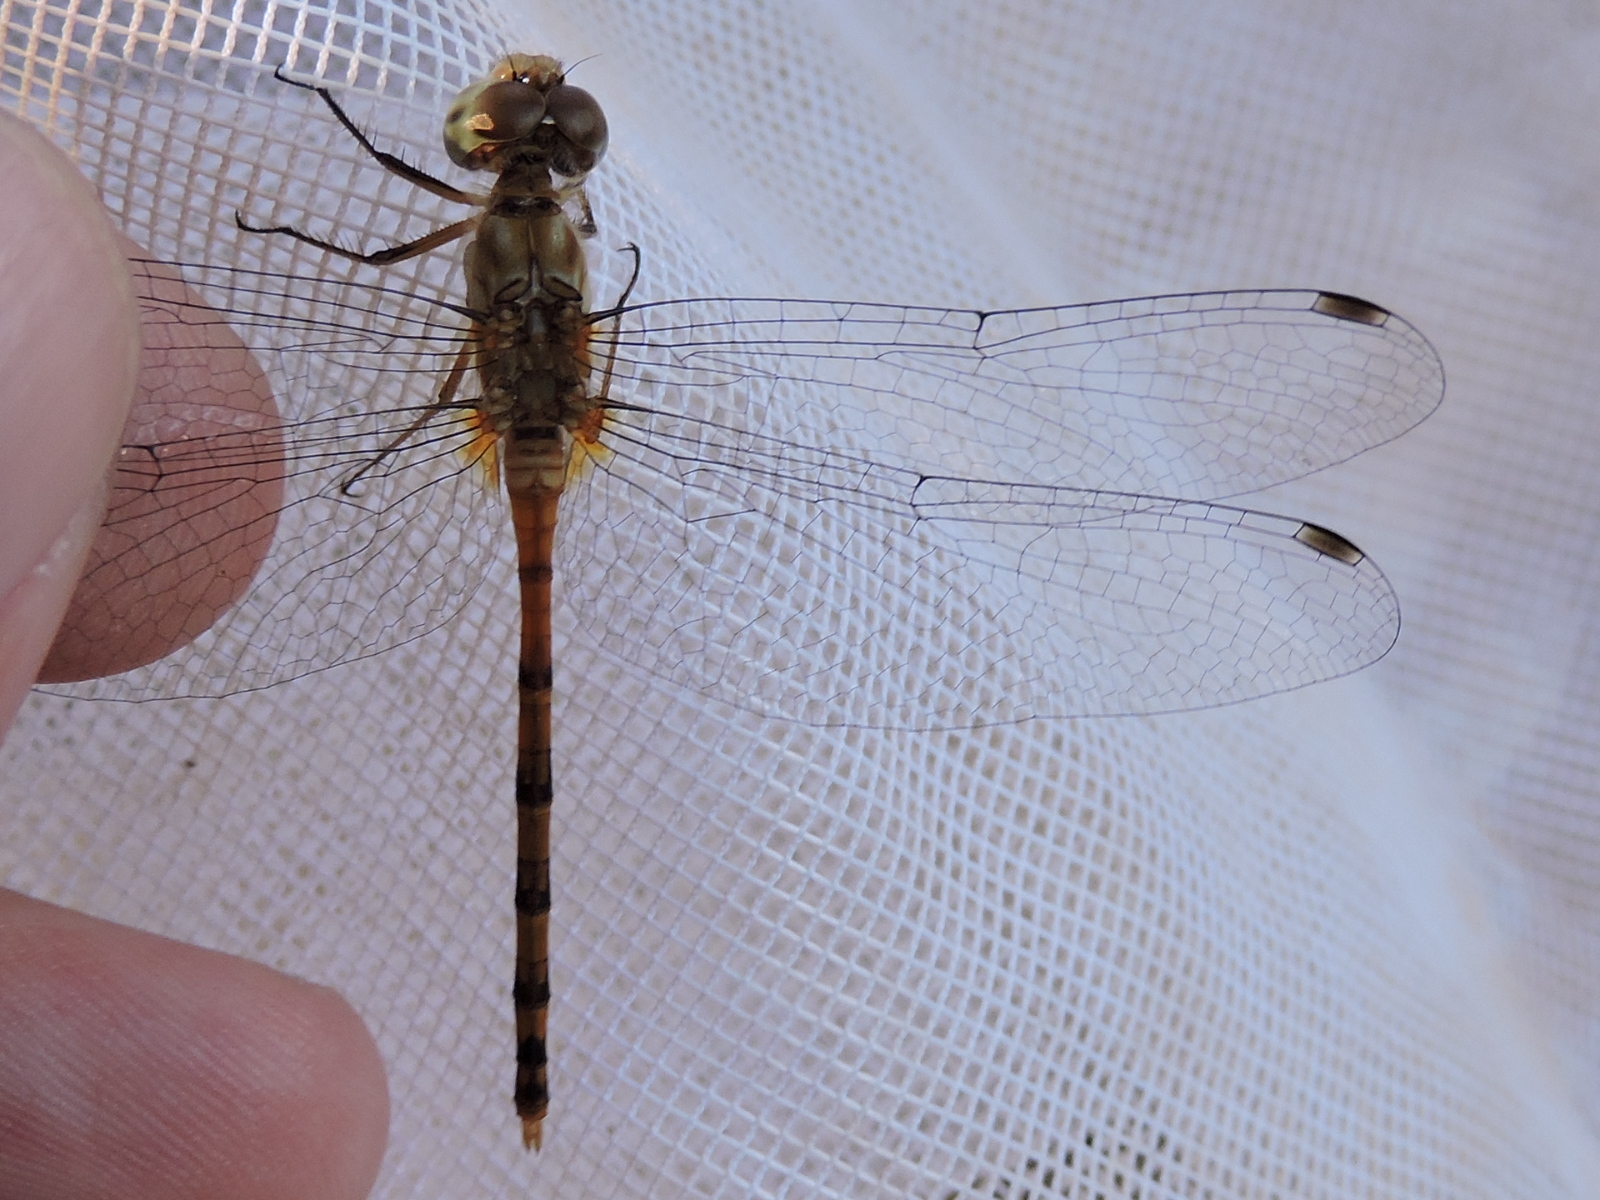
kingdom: Animalia
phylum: Arthropoda
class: Insecta
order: Odonata
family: Libellulidae
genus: Sympetrum
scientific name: Sympetrum ambiguum
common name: Blue-faced meadowhawk
